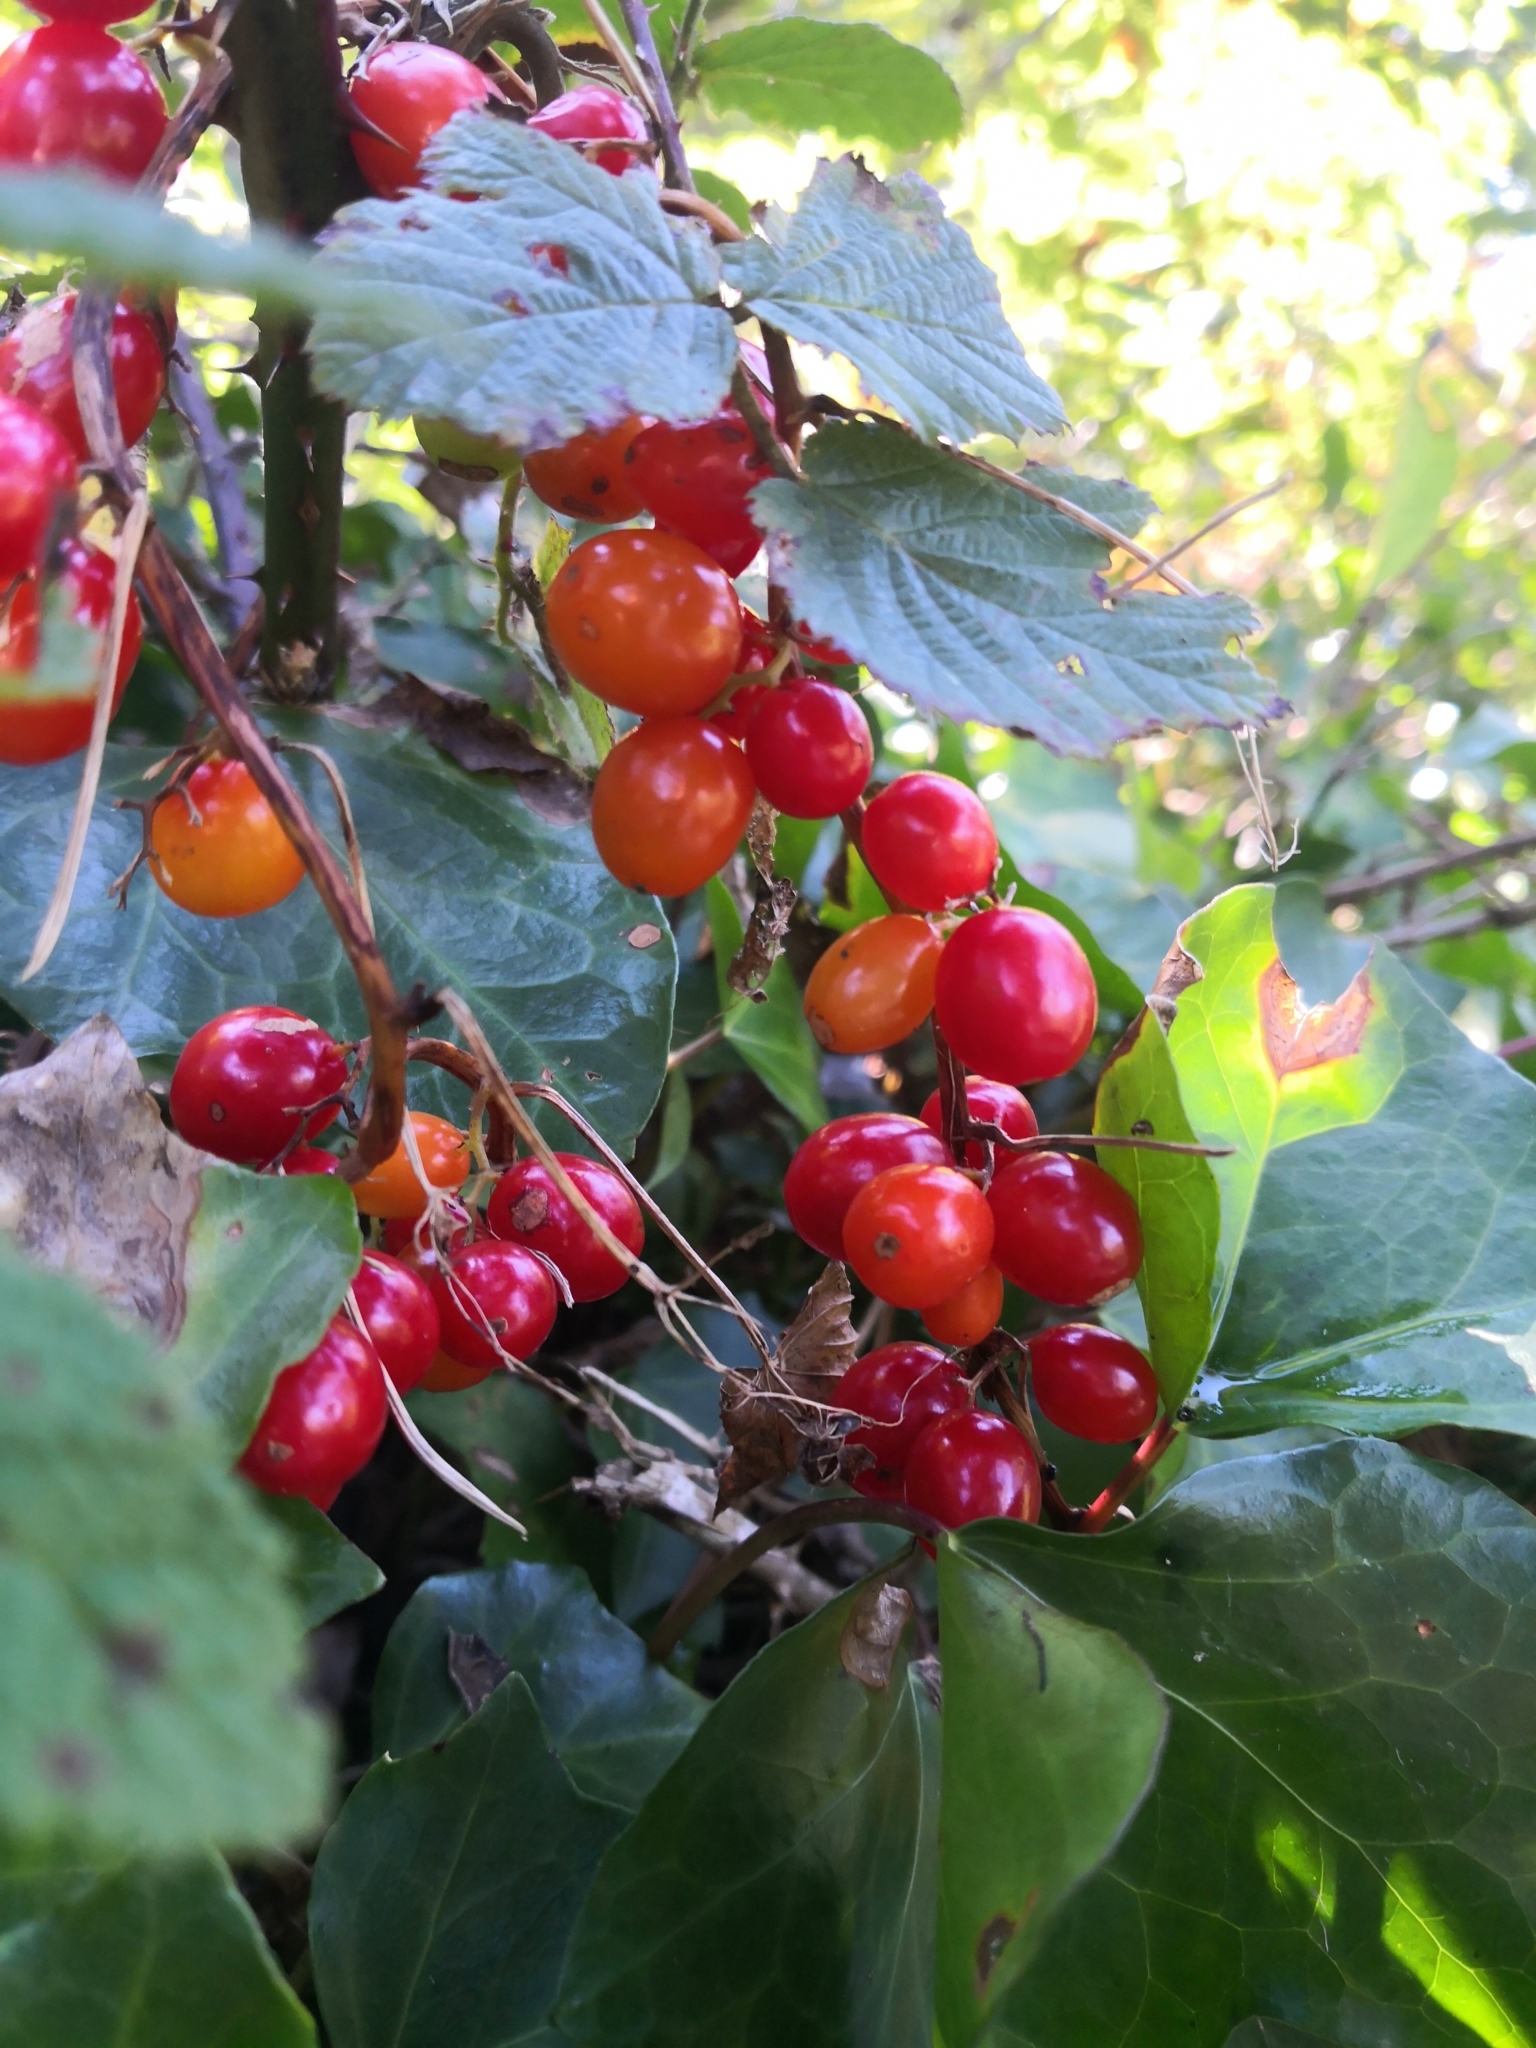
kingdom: Plantae
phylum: Tracheophyta
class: Liliopsida
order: Dioscoreales
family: Dioscoreaceae
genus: Dioscorea
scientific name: Dioscorea communis
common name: Black-bindweed
